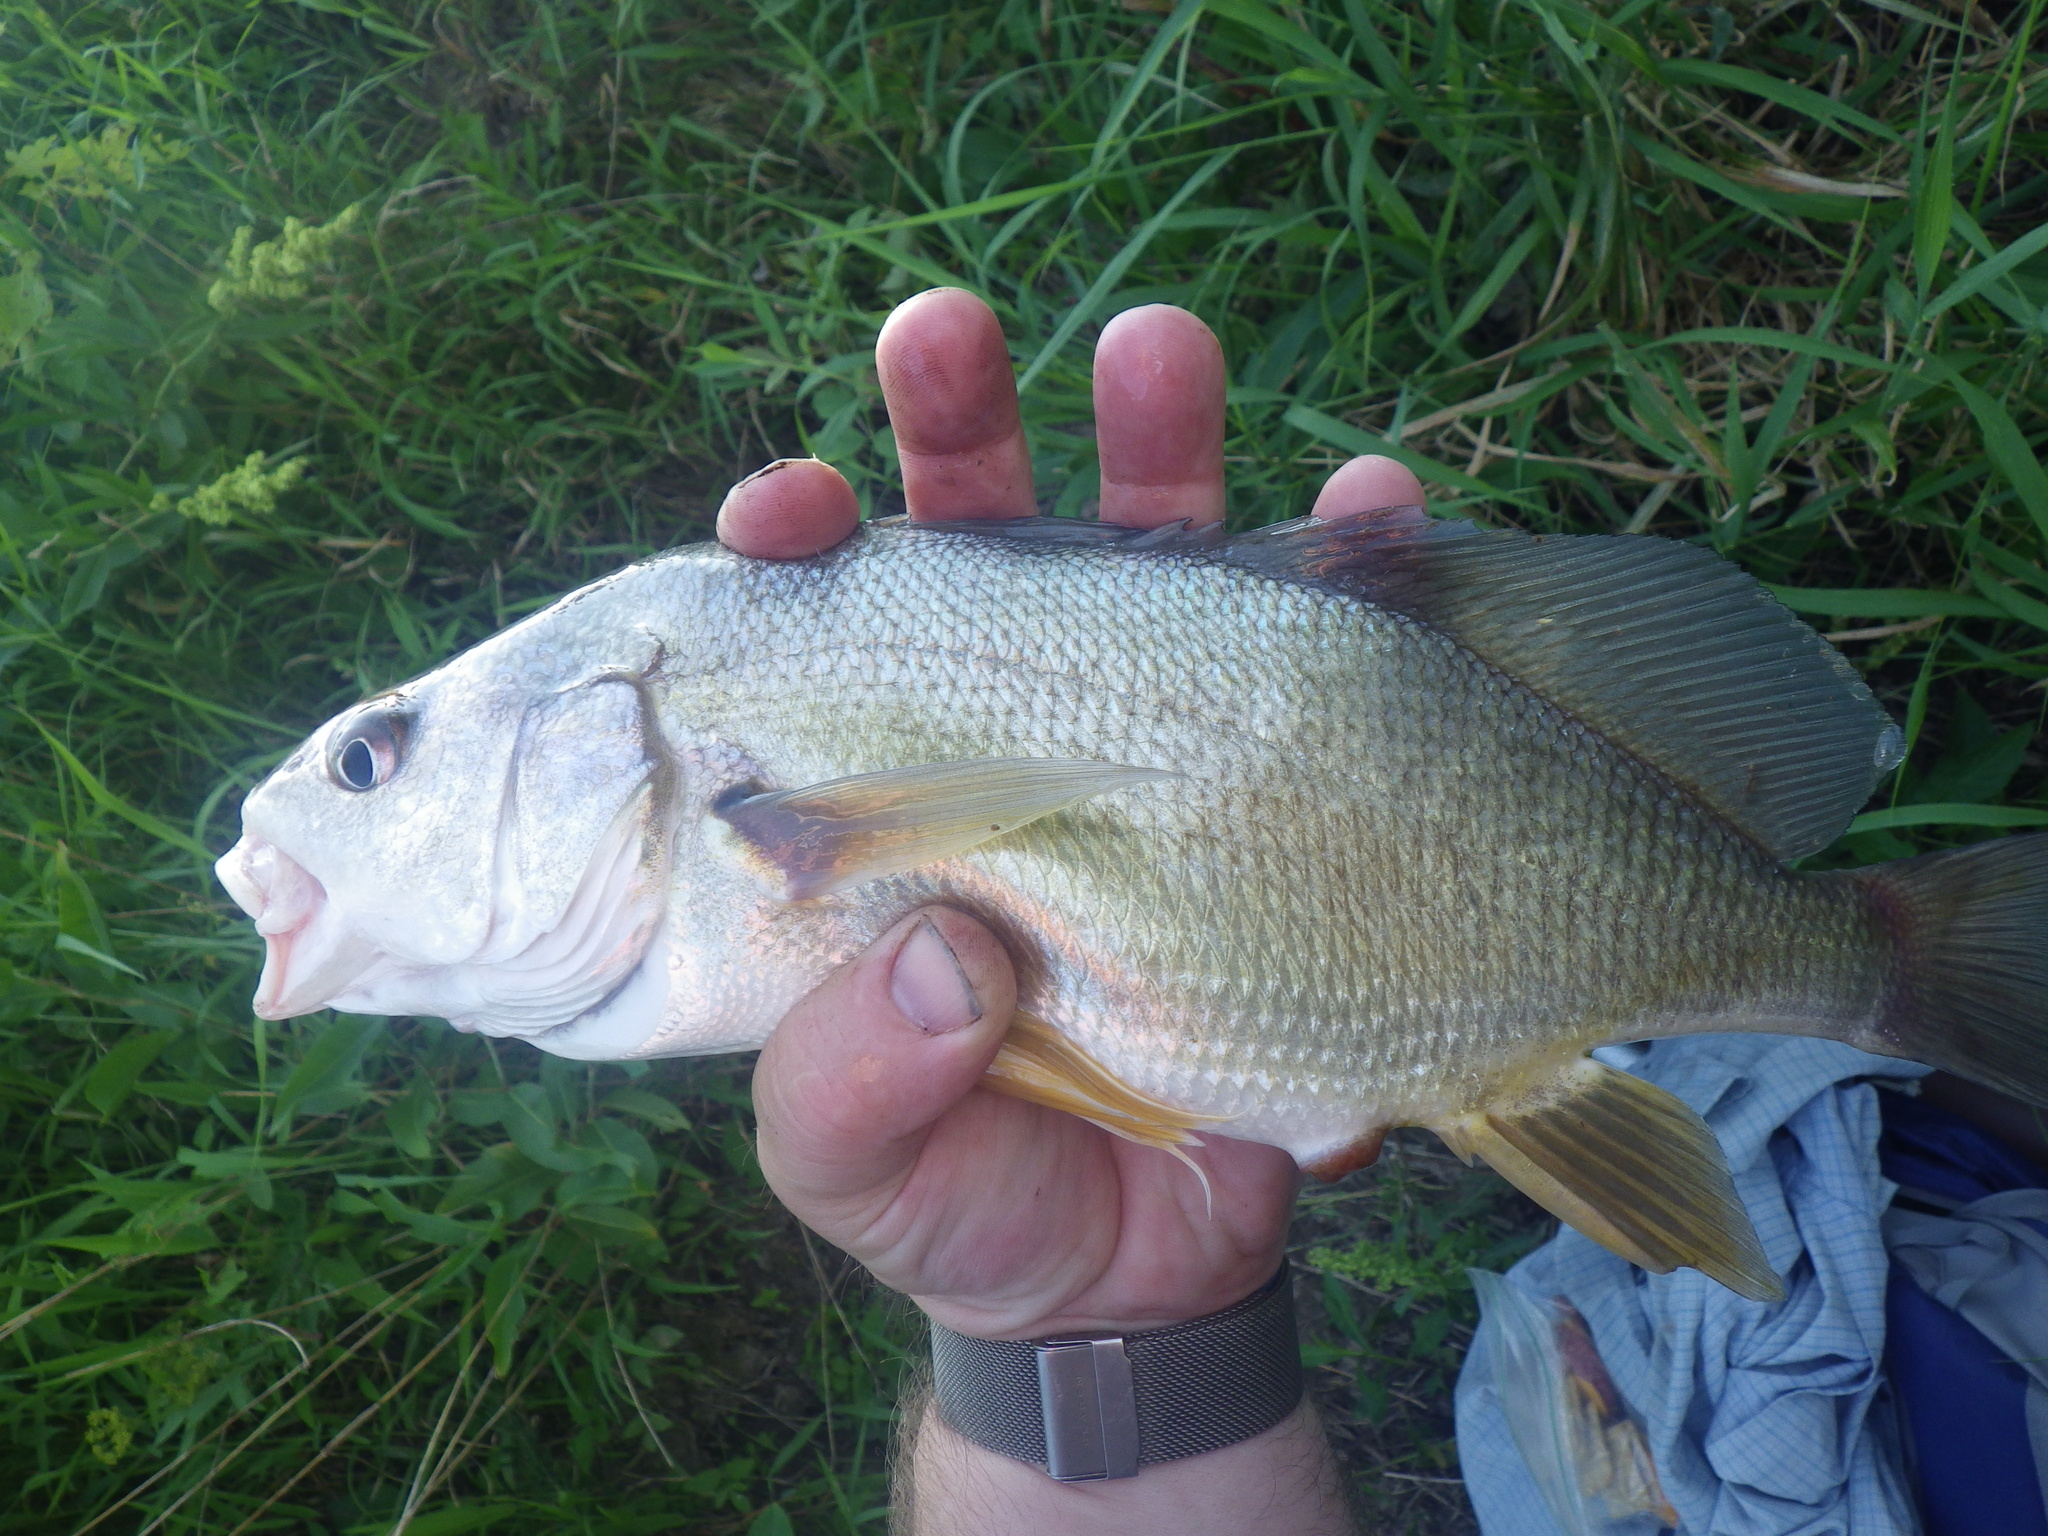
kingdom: Animalia
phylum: Chordata
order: Perciformes
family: Sciaenidae
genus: Aplodinotus
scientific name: Aplodinotus grunniens
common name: Freshwater drum
